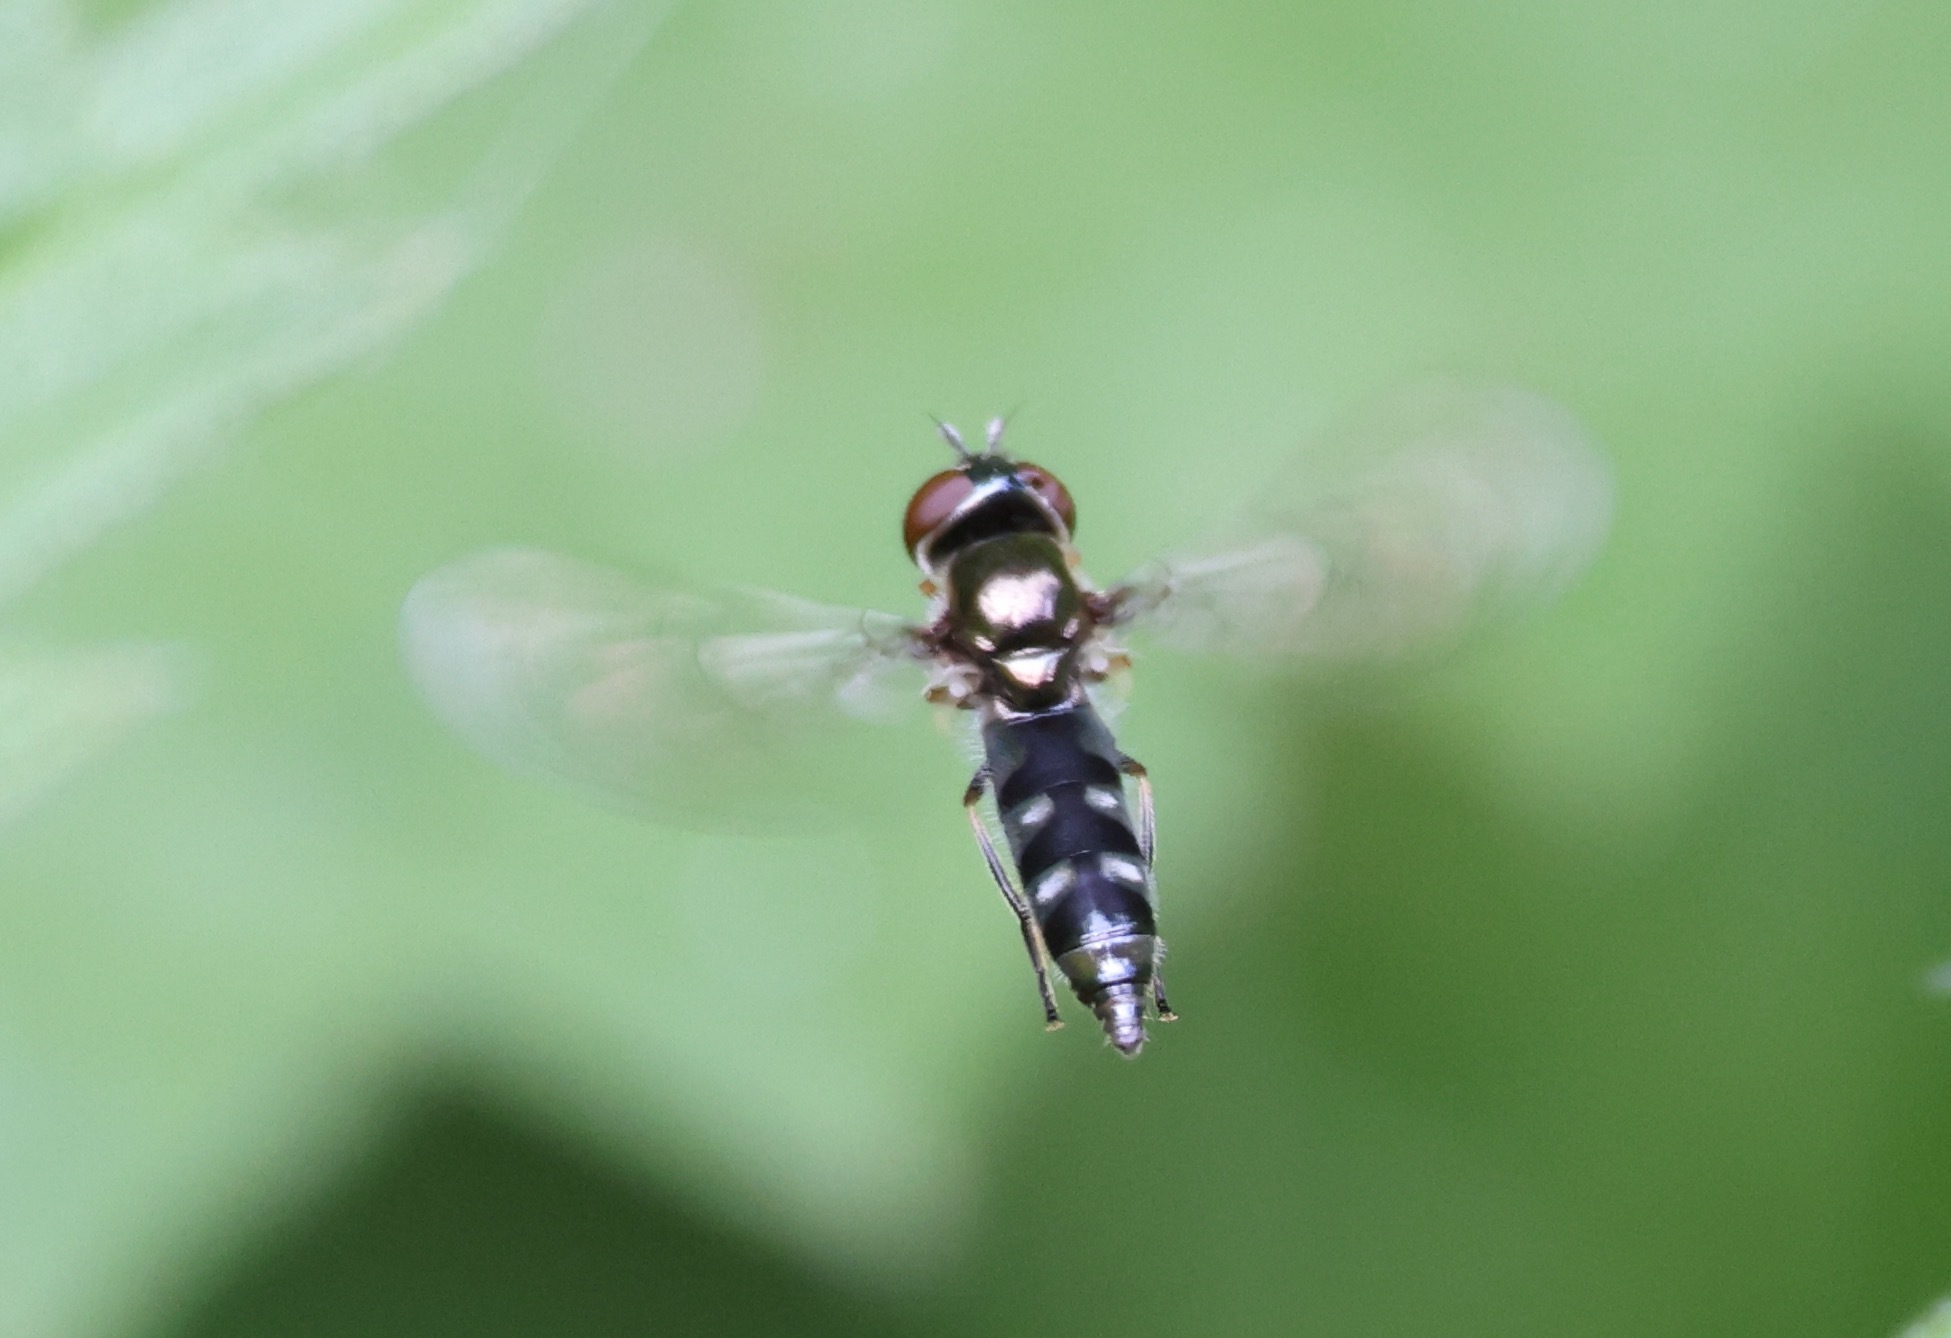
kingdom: Animalia
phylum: Arthropoda
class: Insecta
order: Diptera
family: Syrphidae
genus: Platycheirus
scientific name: Platycheirus albimanus
